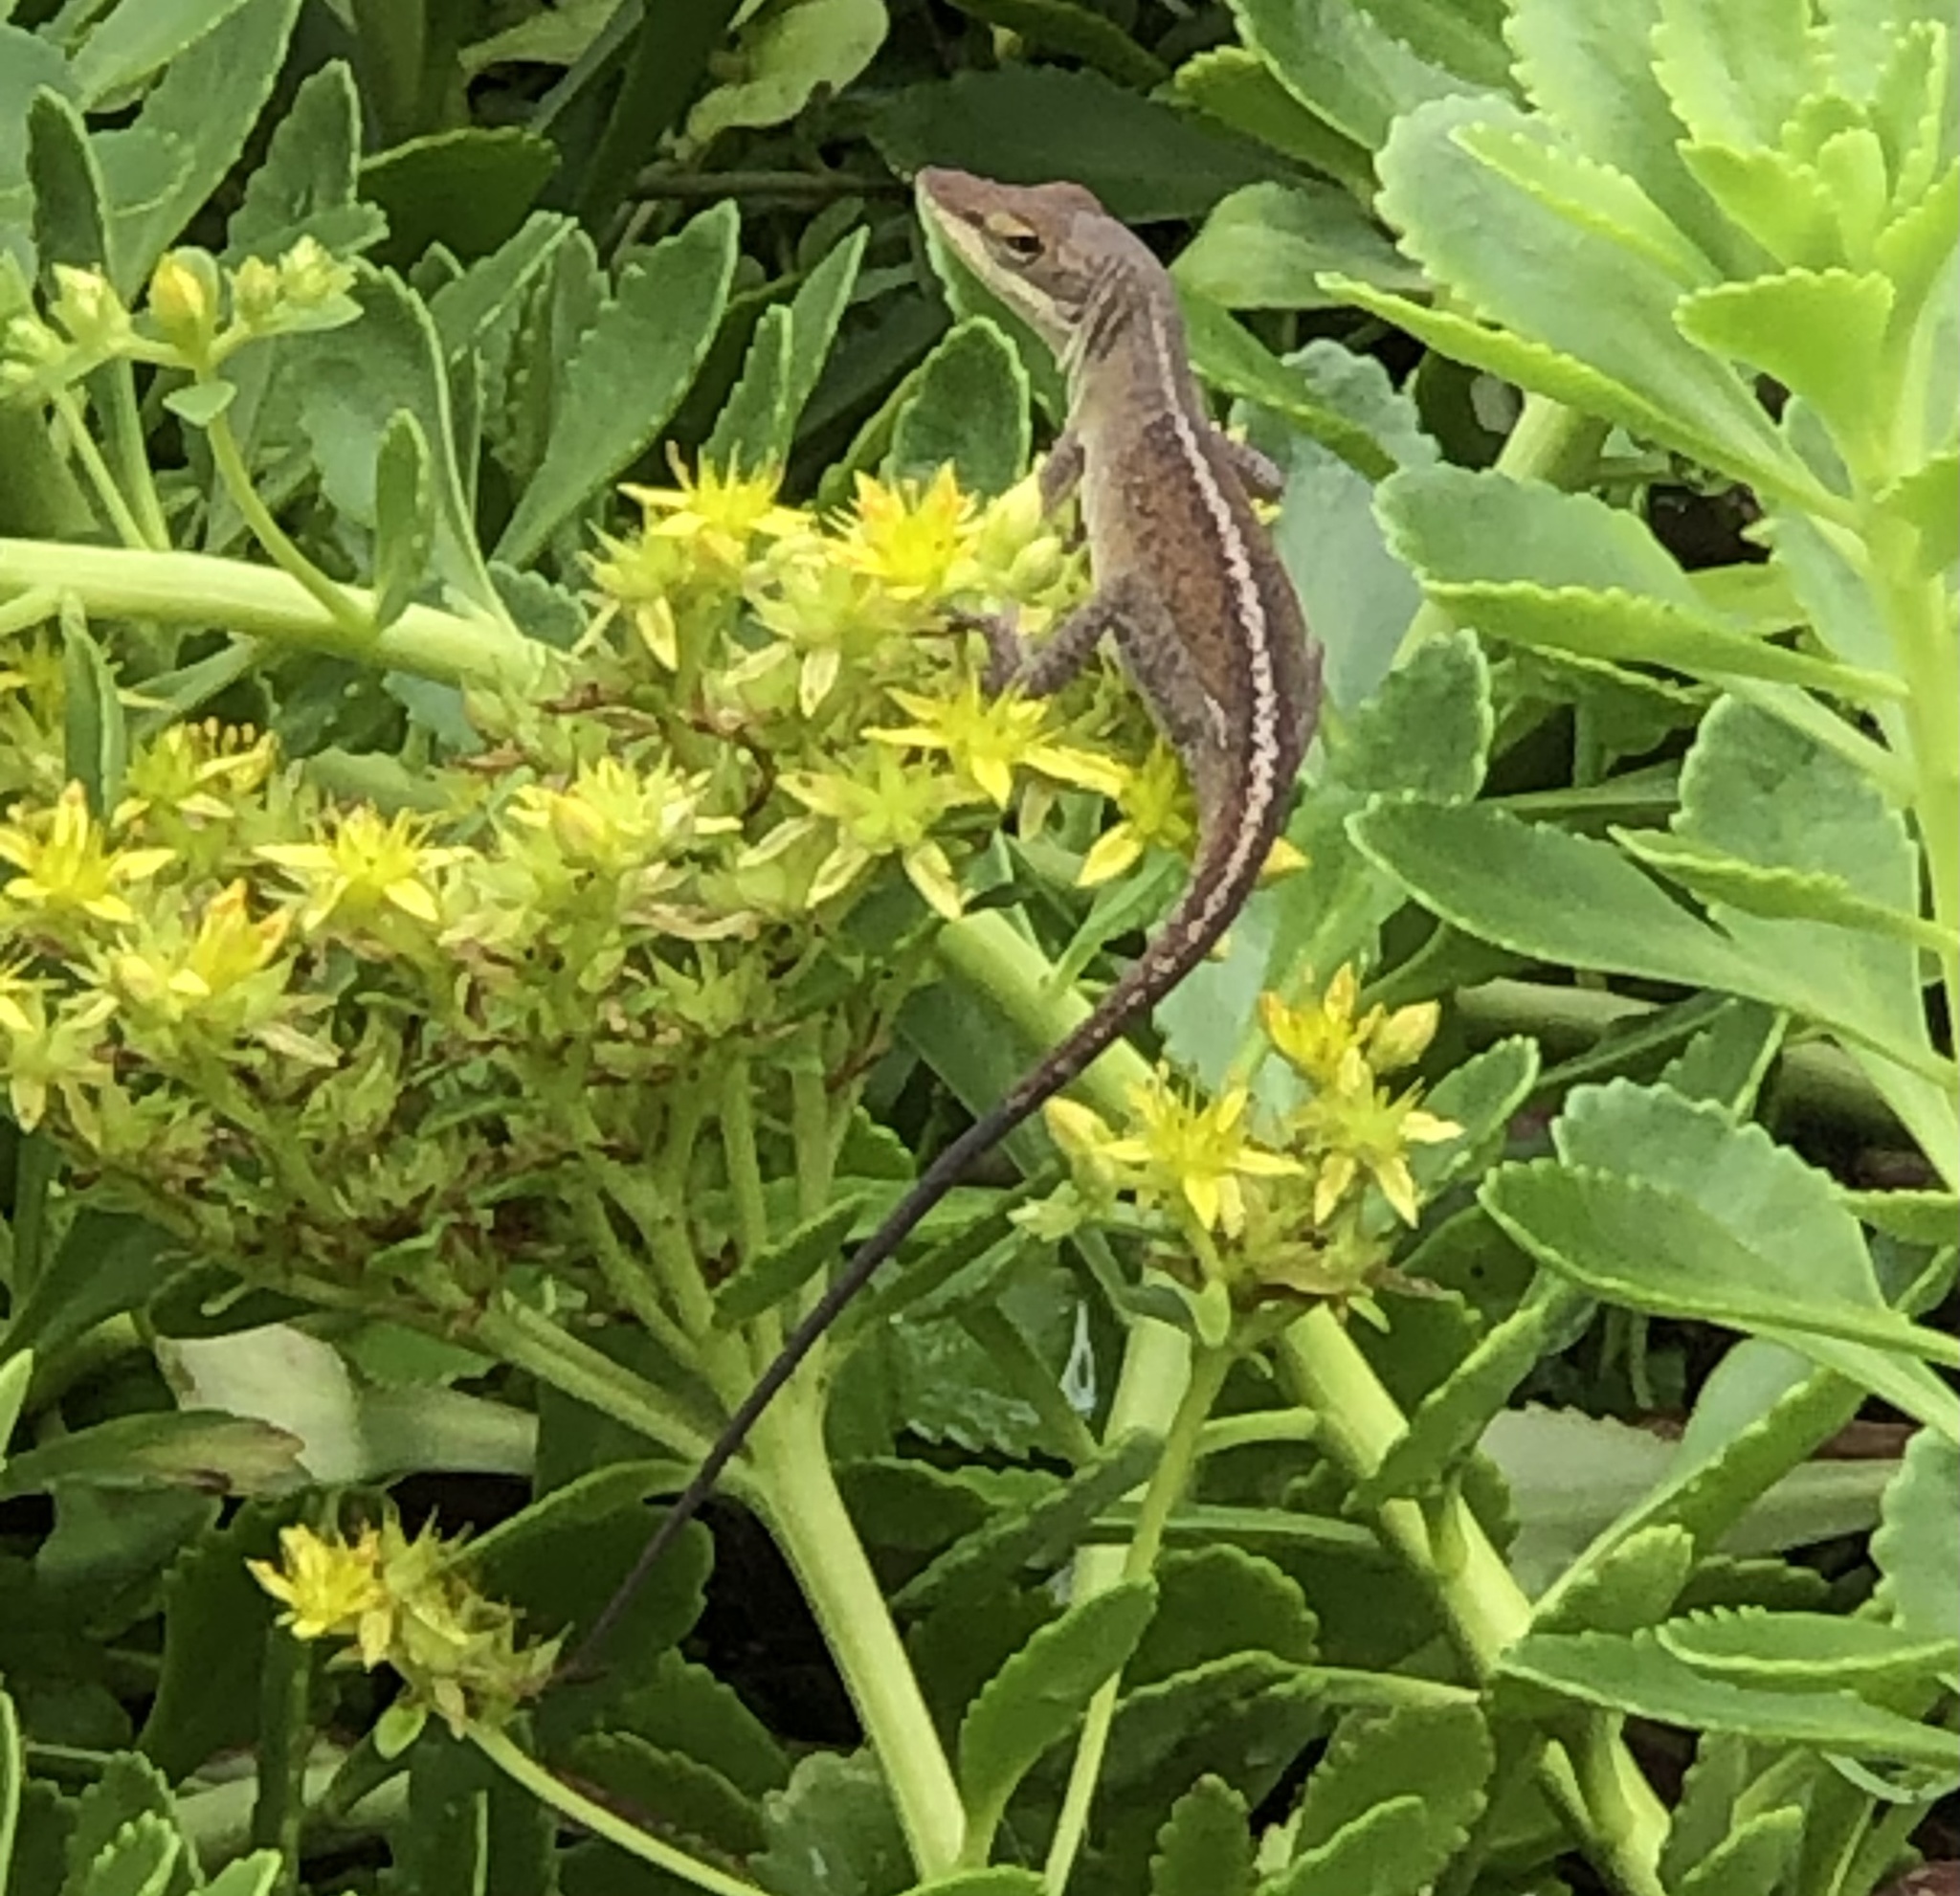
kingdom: Animalia
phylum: Chordata
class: Squamata
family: Dactyloidae
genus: Anolis
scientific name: Anolis carolinensis
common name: Green anole
